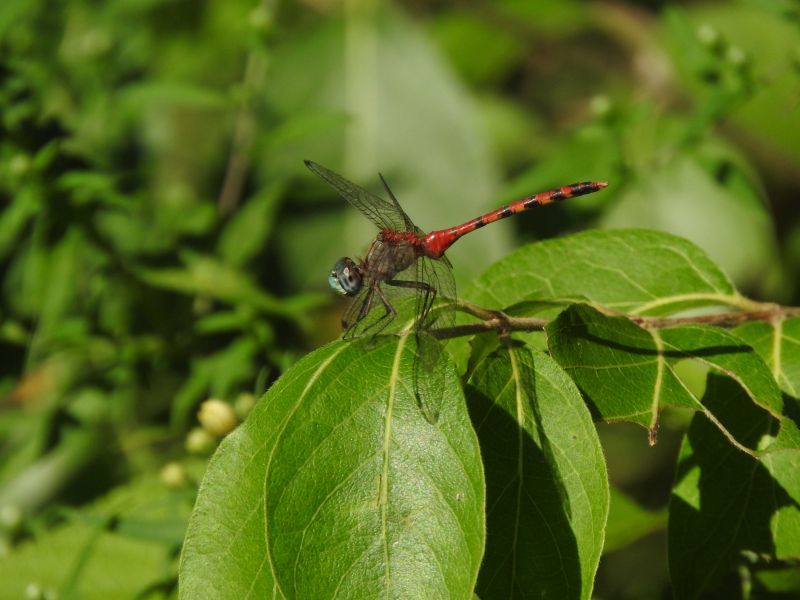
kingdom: Animalia
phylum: Arthropoda
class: Insecta
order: Odonata
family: Libellulidae
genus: Sympetrum
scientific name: Sympetrum ambiguum
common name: Blue-faced meadowhawk
